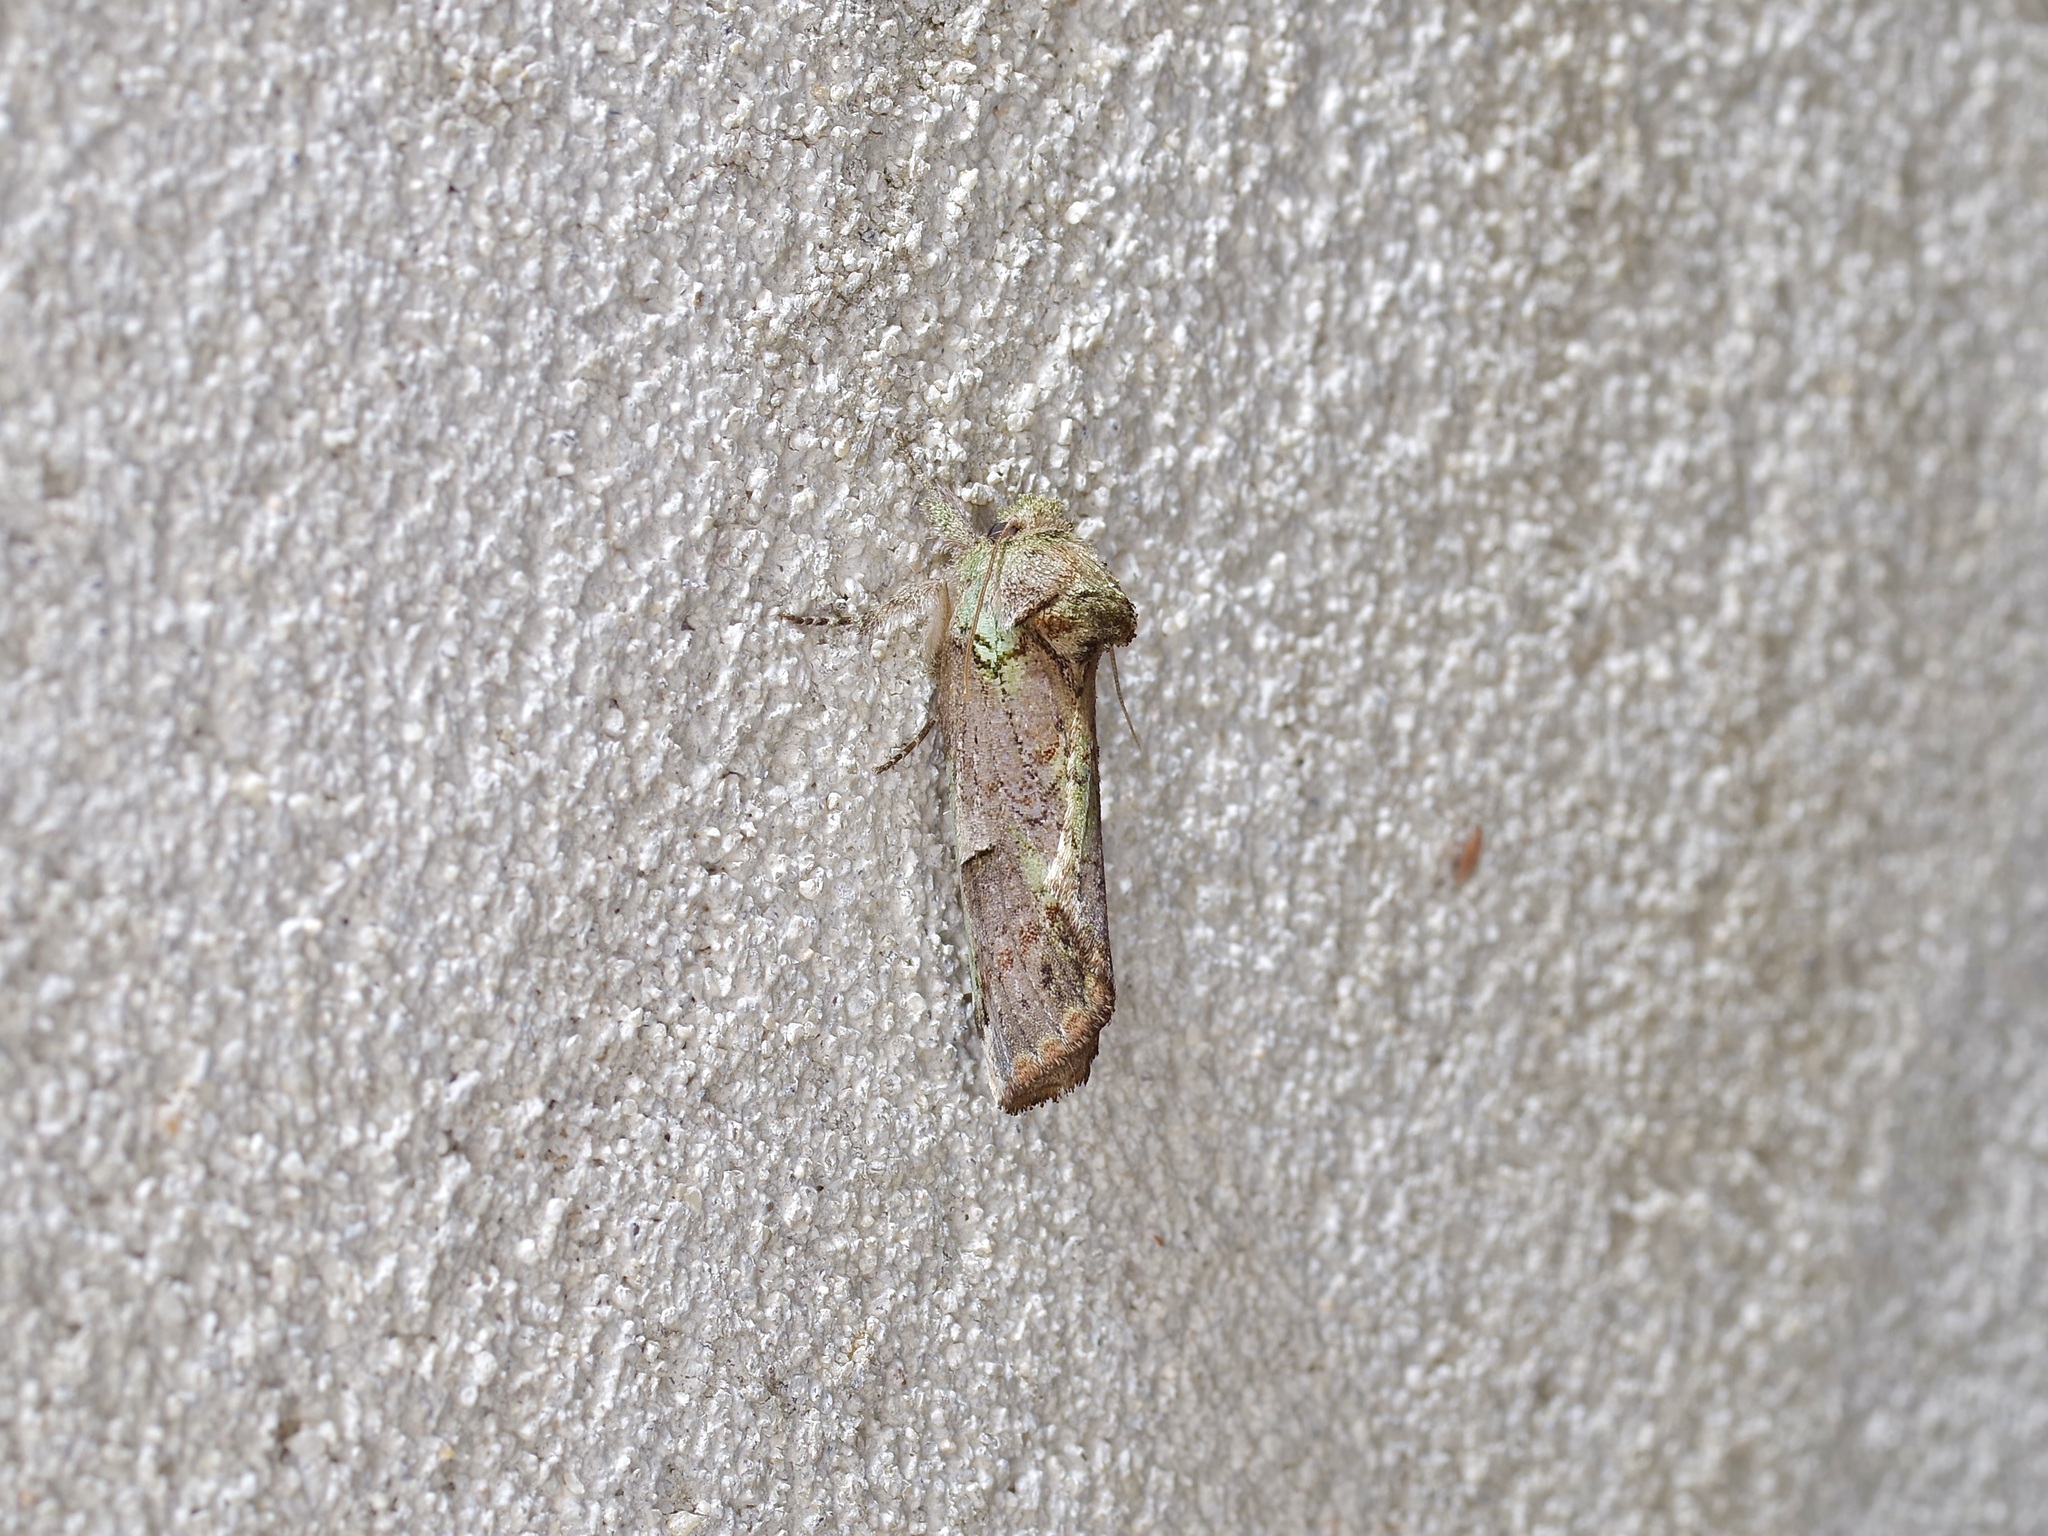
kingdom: Animalia
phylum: Arthropoda
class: Insecta
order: Lepidoptera
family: Notodontidae
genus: Schizura
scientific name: Schizura
